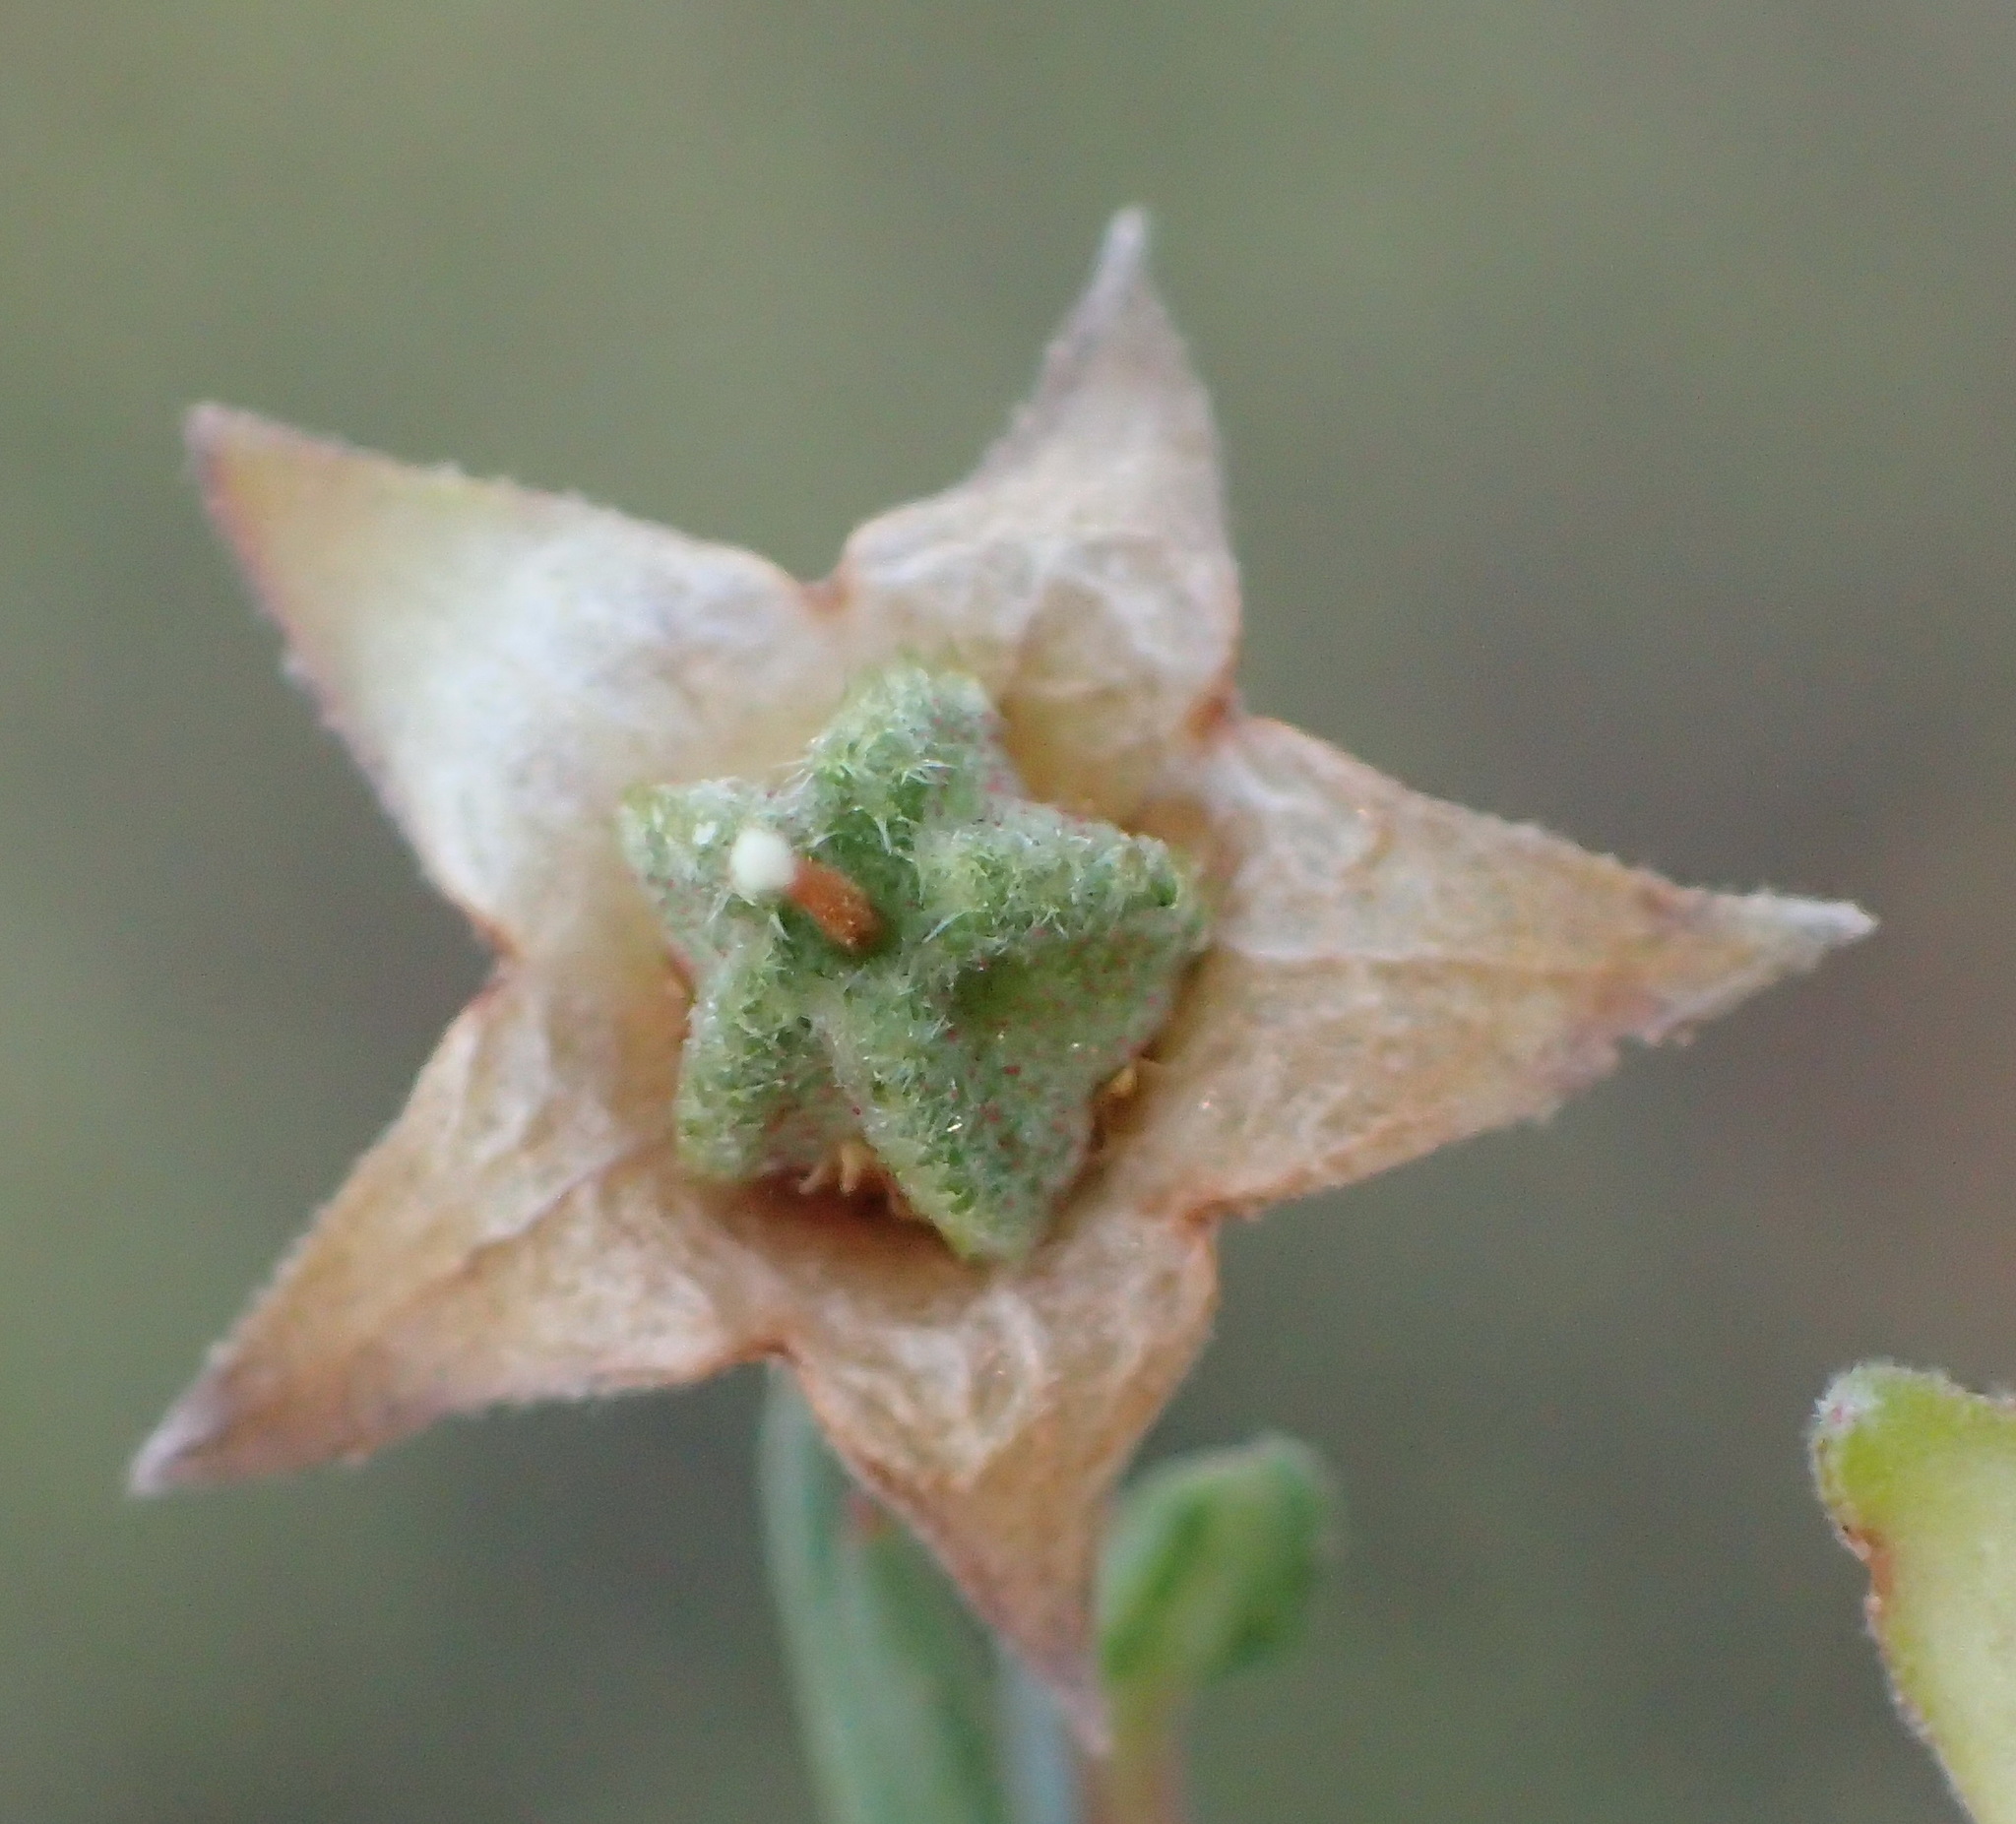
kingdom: Plantae
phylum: Tracheophyta
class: Magnoliopsida
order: Malvales
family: Malvaceae
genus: Hermannia
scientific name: Hermannia filifolia
